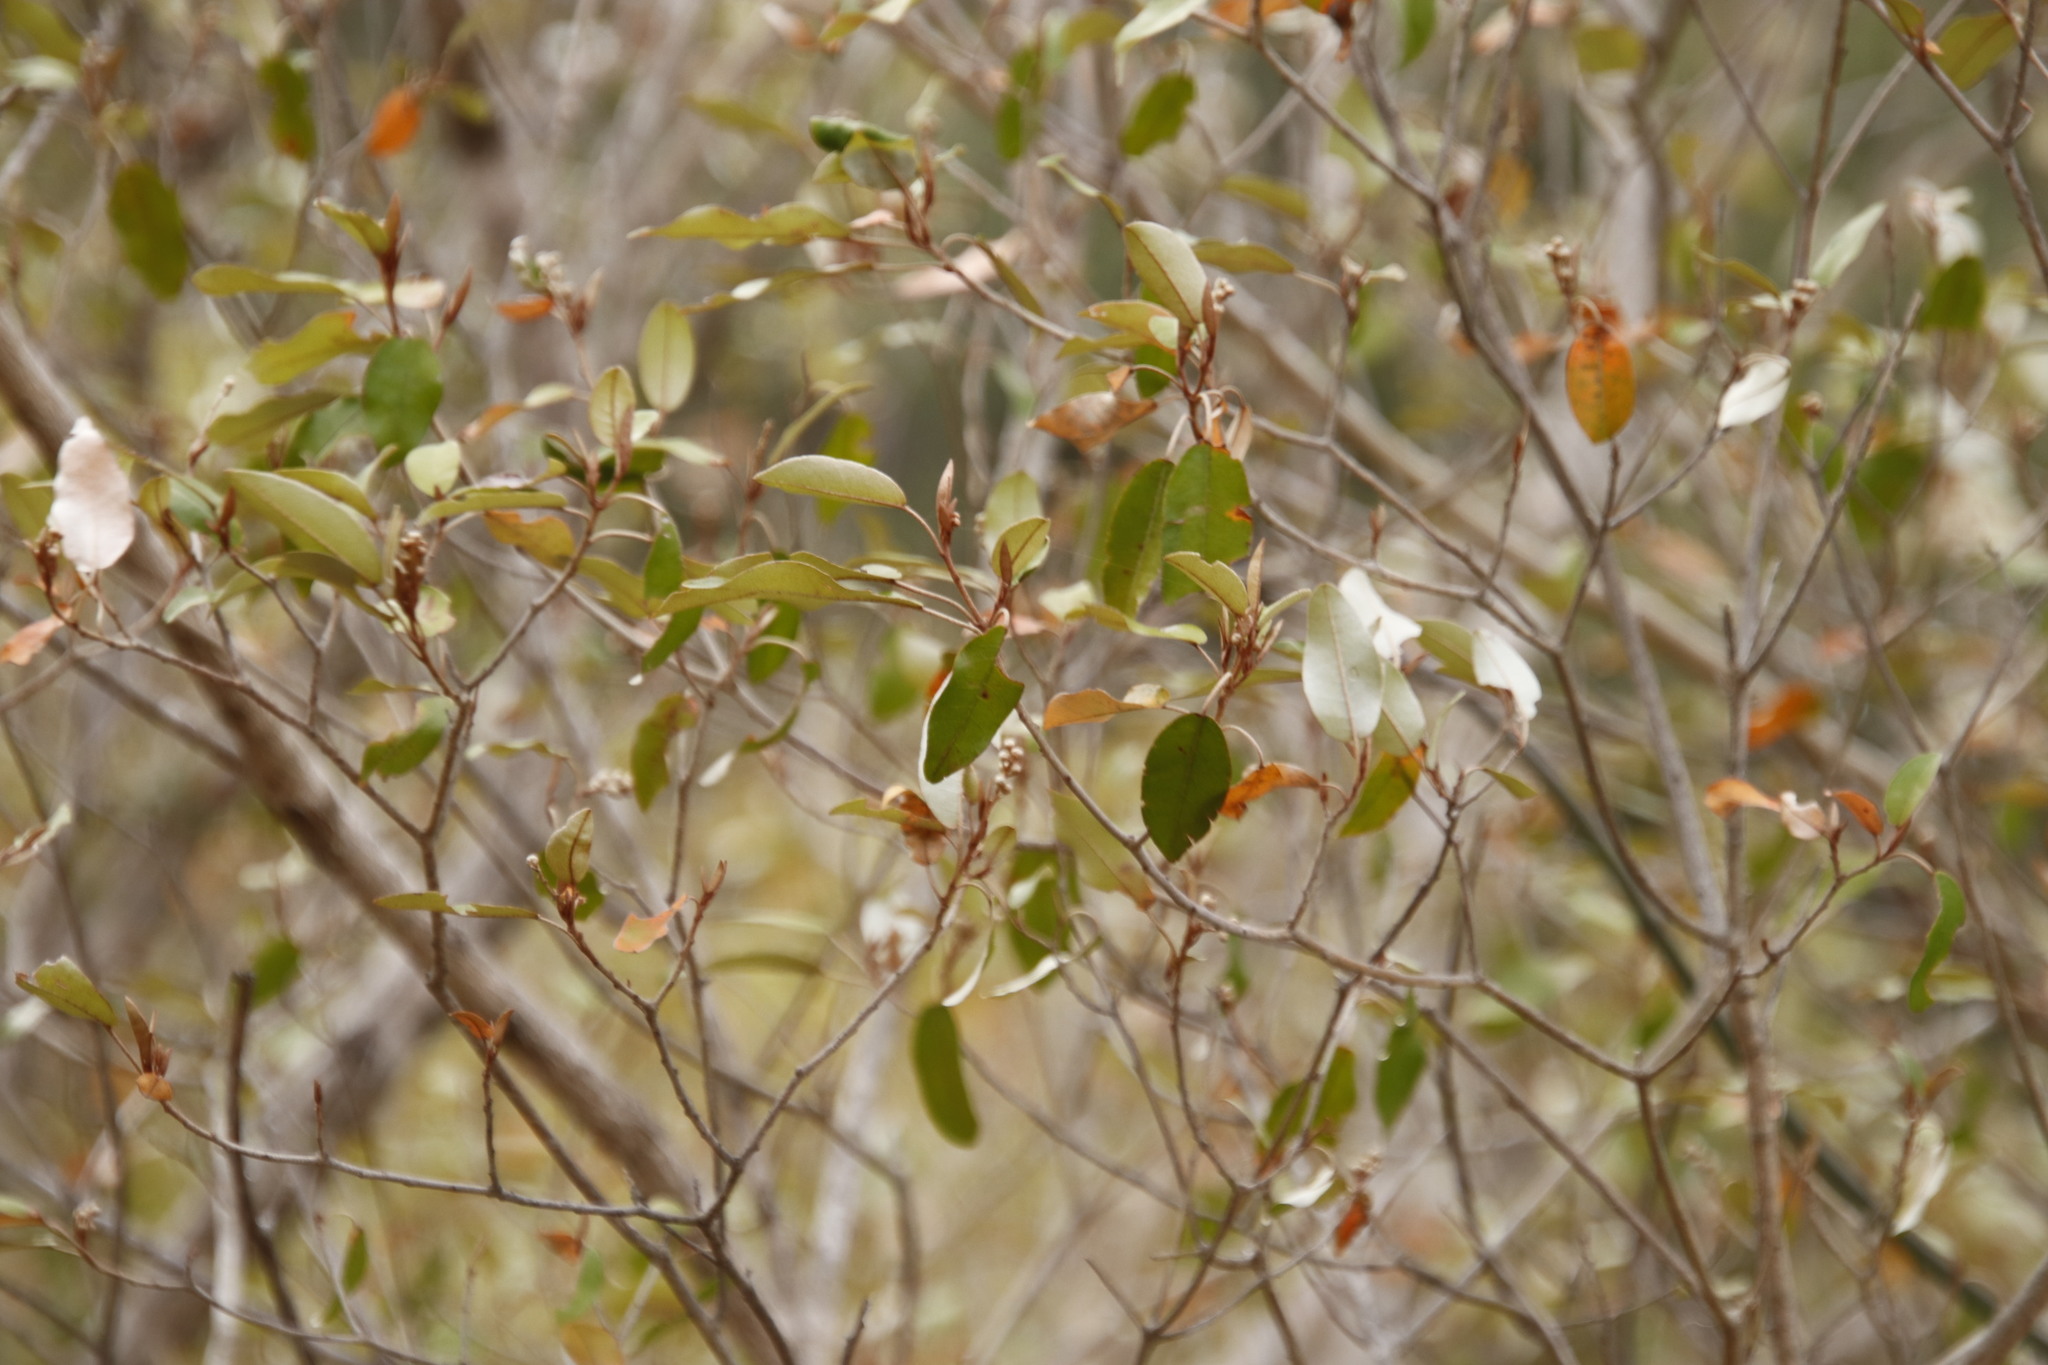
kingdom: Plantae
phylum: Tracheophyta
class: Magnoliopsida
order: Malpighiales
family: Euphorbiaceae
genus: Croton
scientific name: Croton gratissimus
